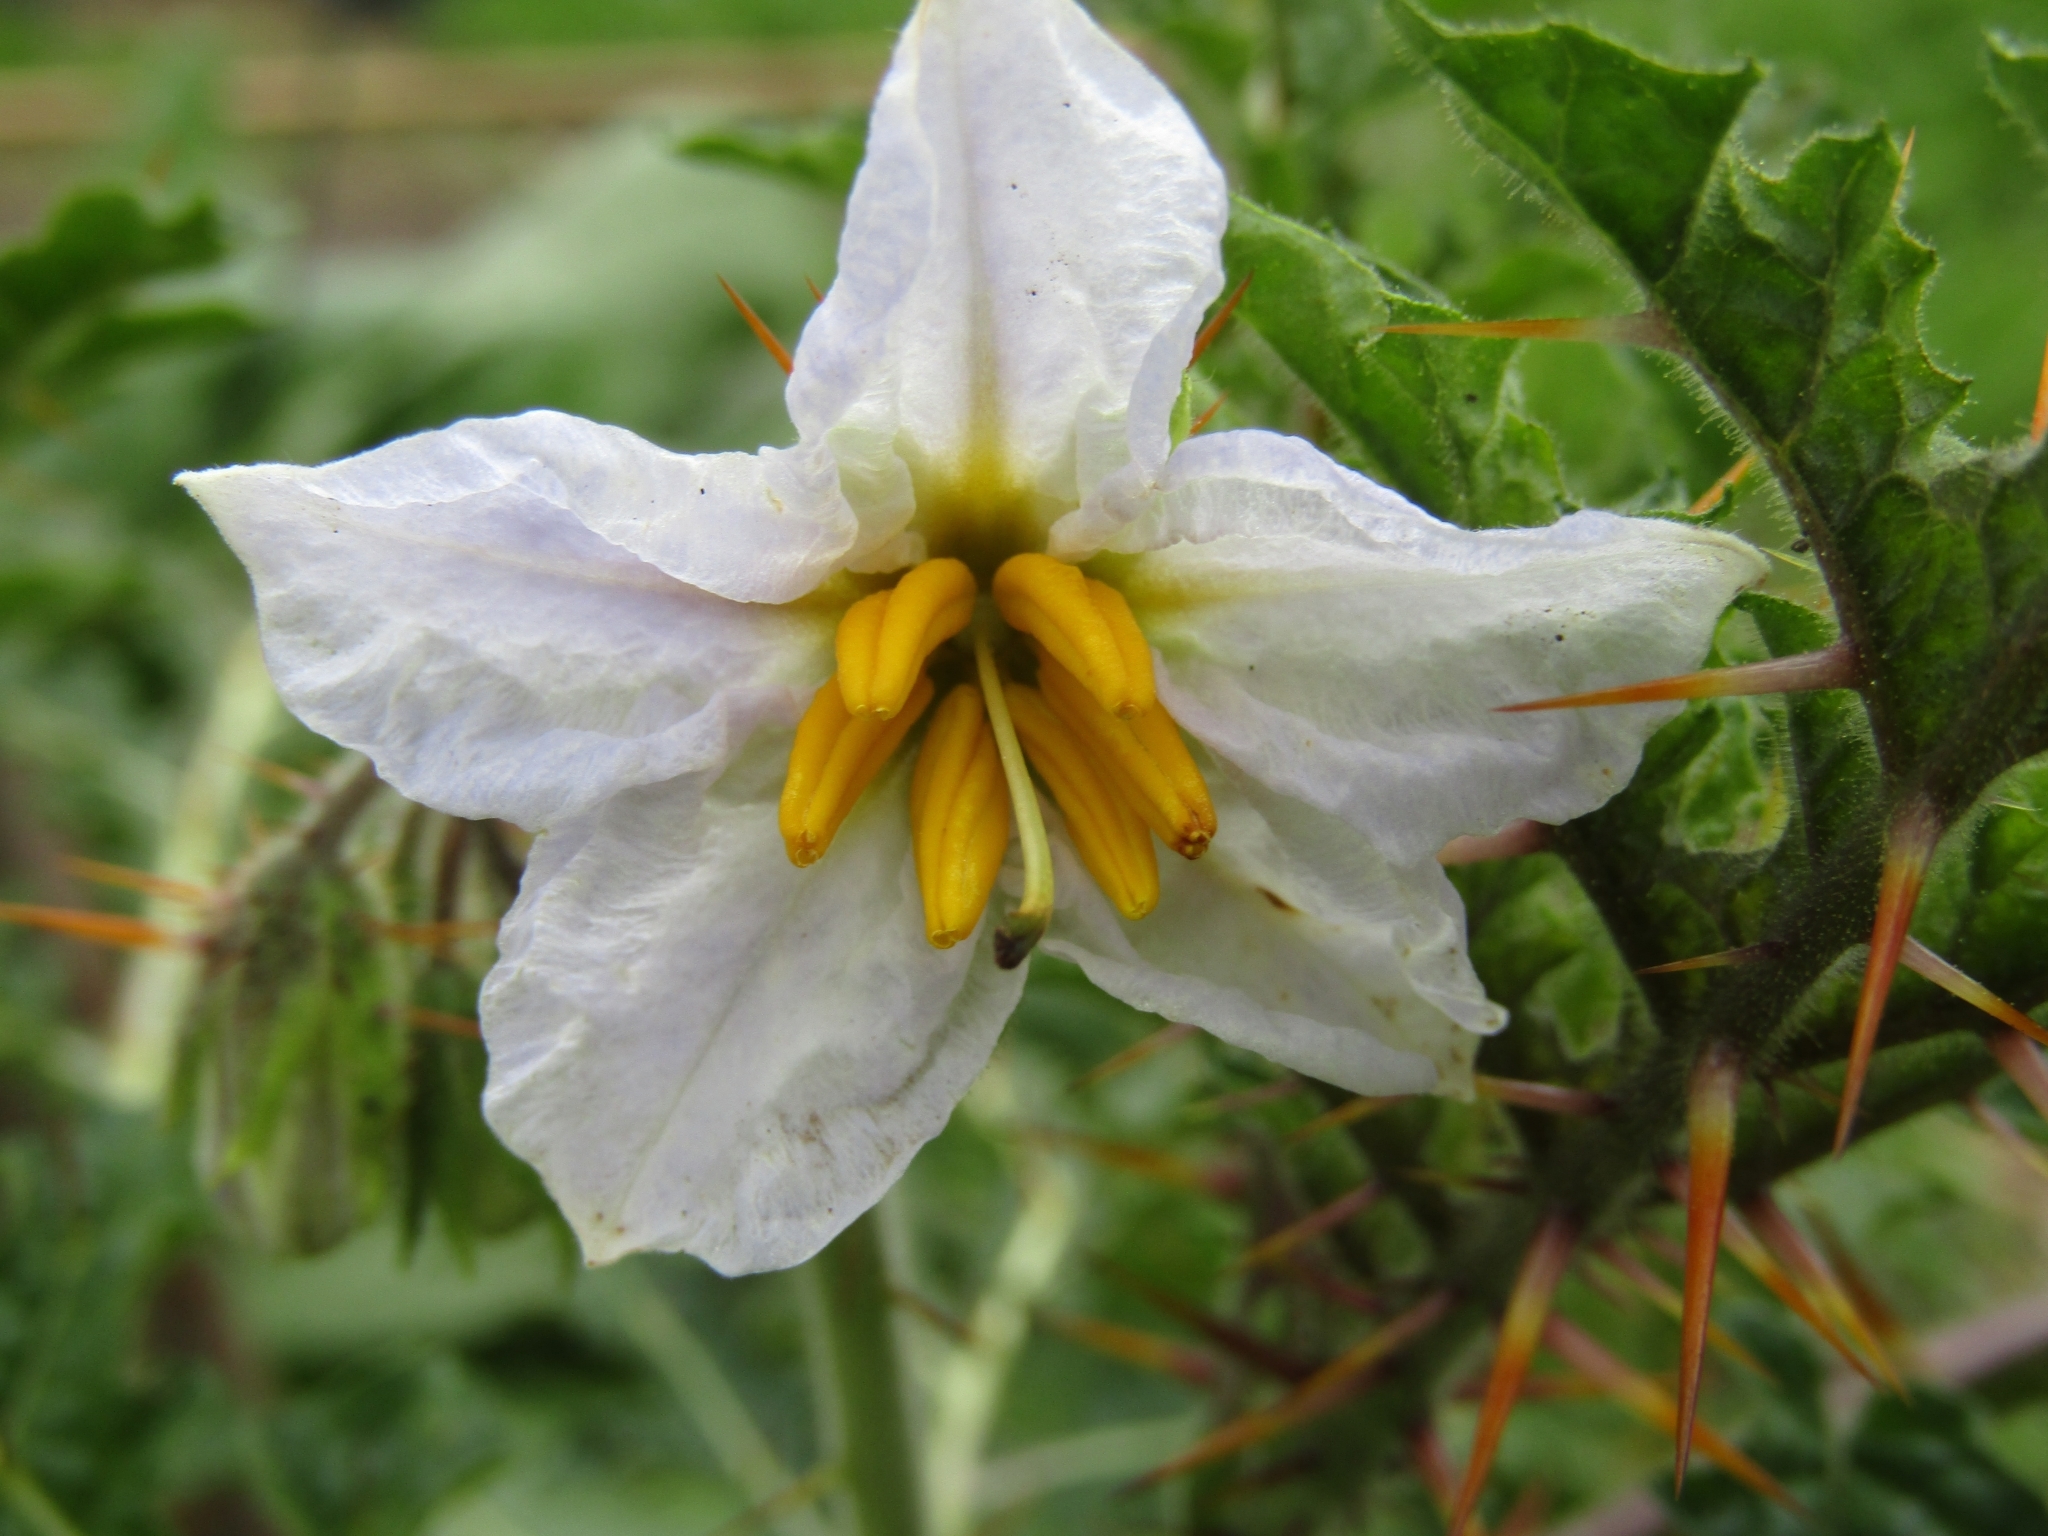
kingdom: Plantae
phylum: Tracheophyta
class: Magnoliopsida
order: Solanales
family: Solanaceae
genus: Solanum
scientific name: Solanum sisymbriifolium
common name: Red buffalo-bur
